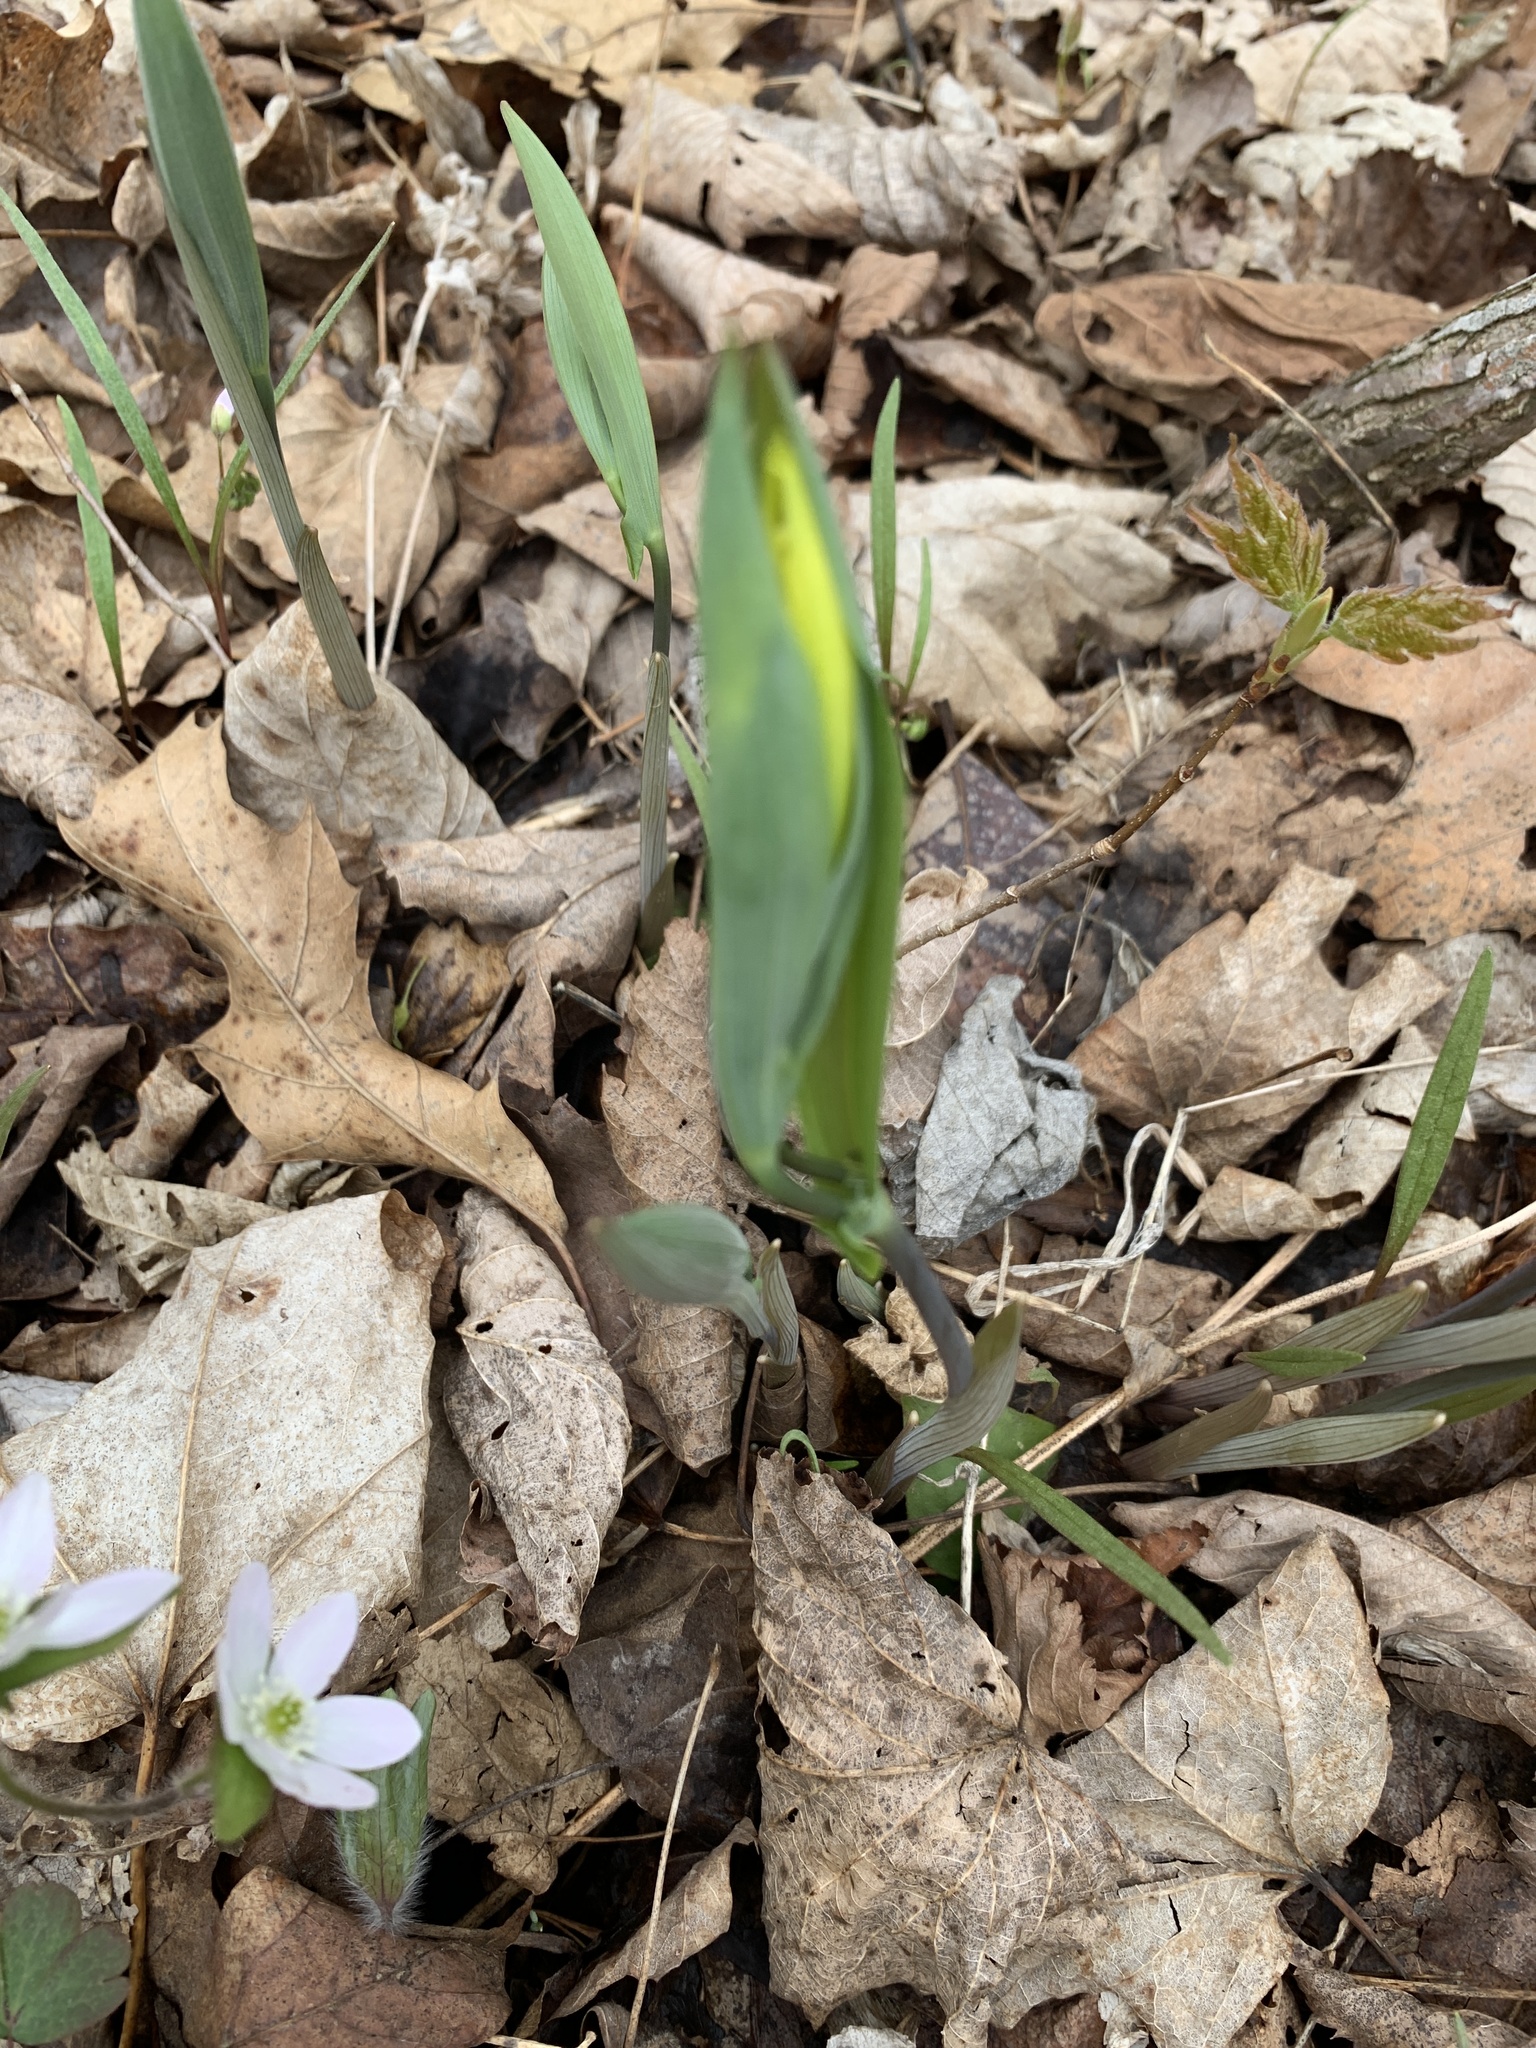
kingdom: Plantae
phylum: Tracheophyta
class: Liliopsida
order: Liliales
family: Colchicaceae
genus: Uvularia
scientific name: Uvularia grandiflora
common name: Bellwort
